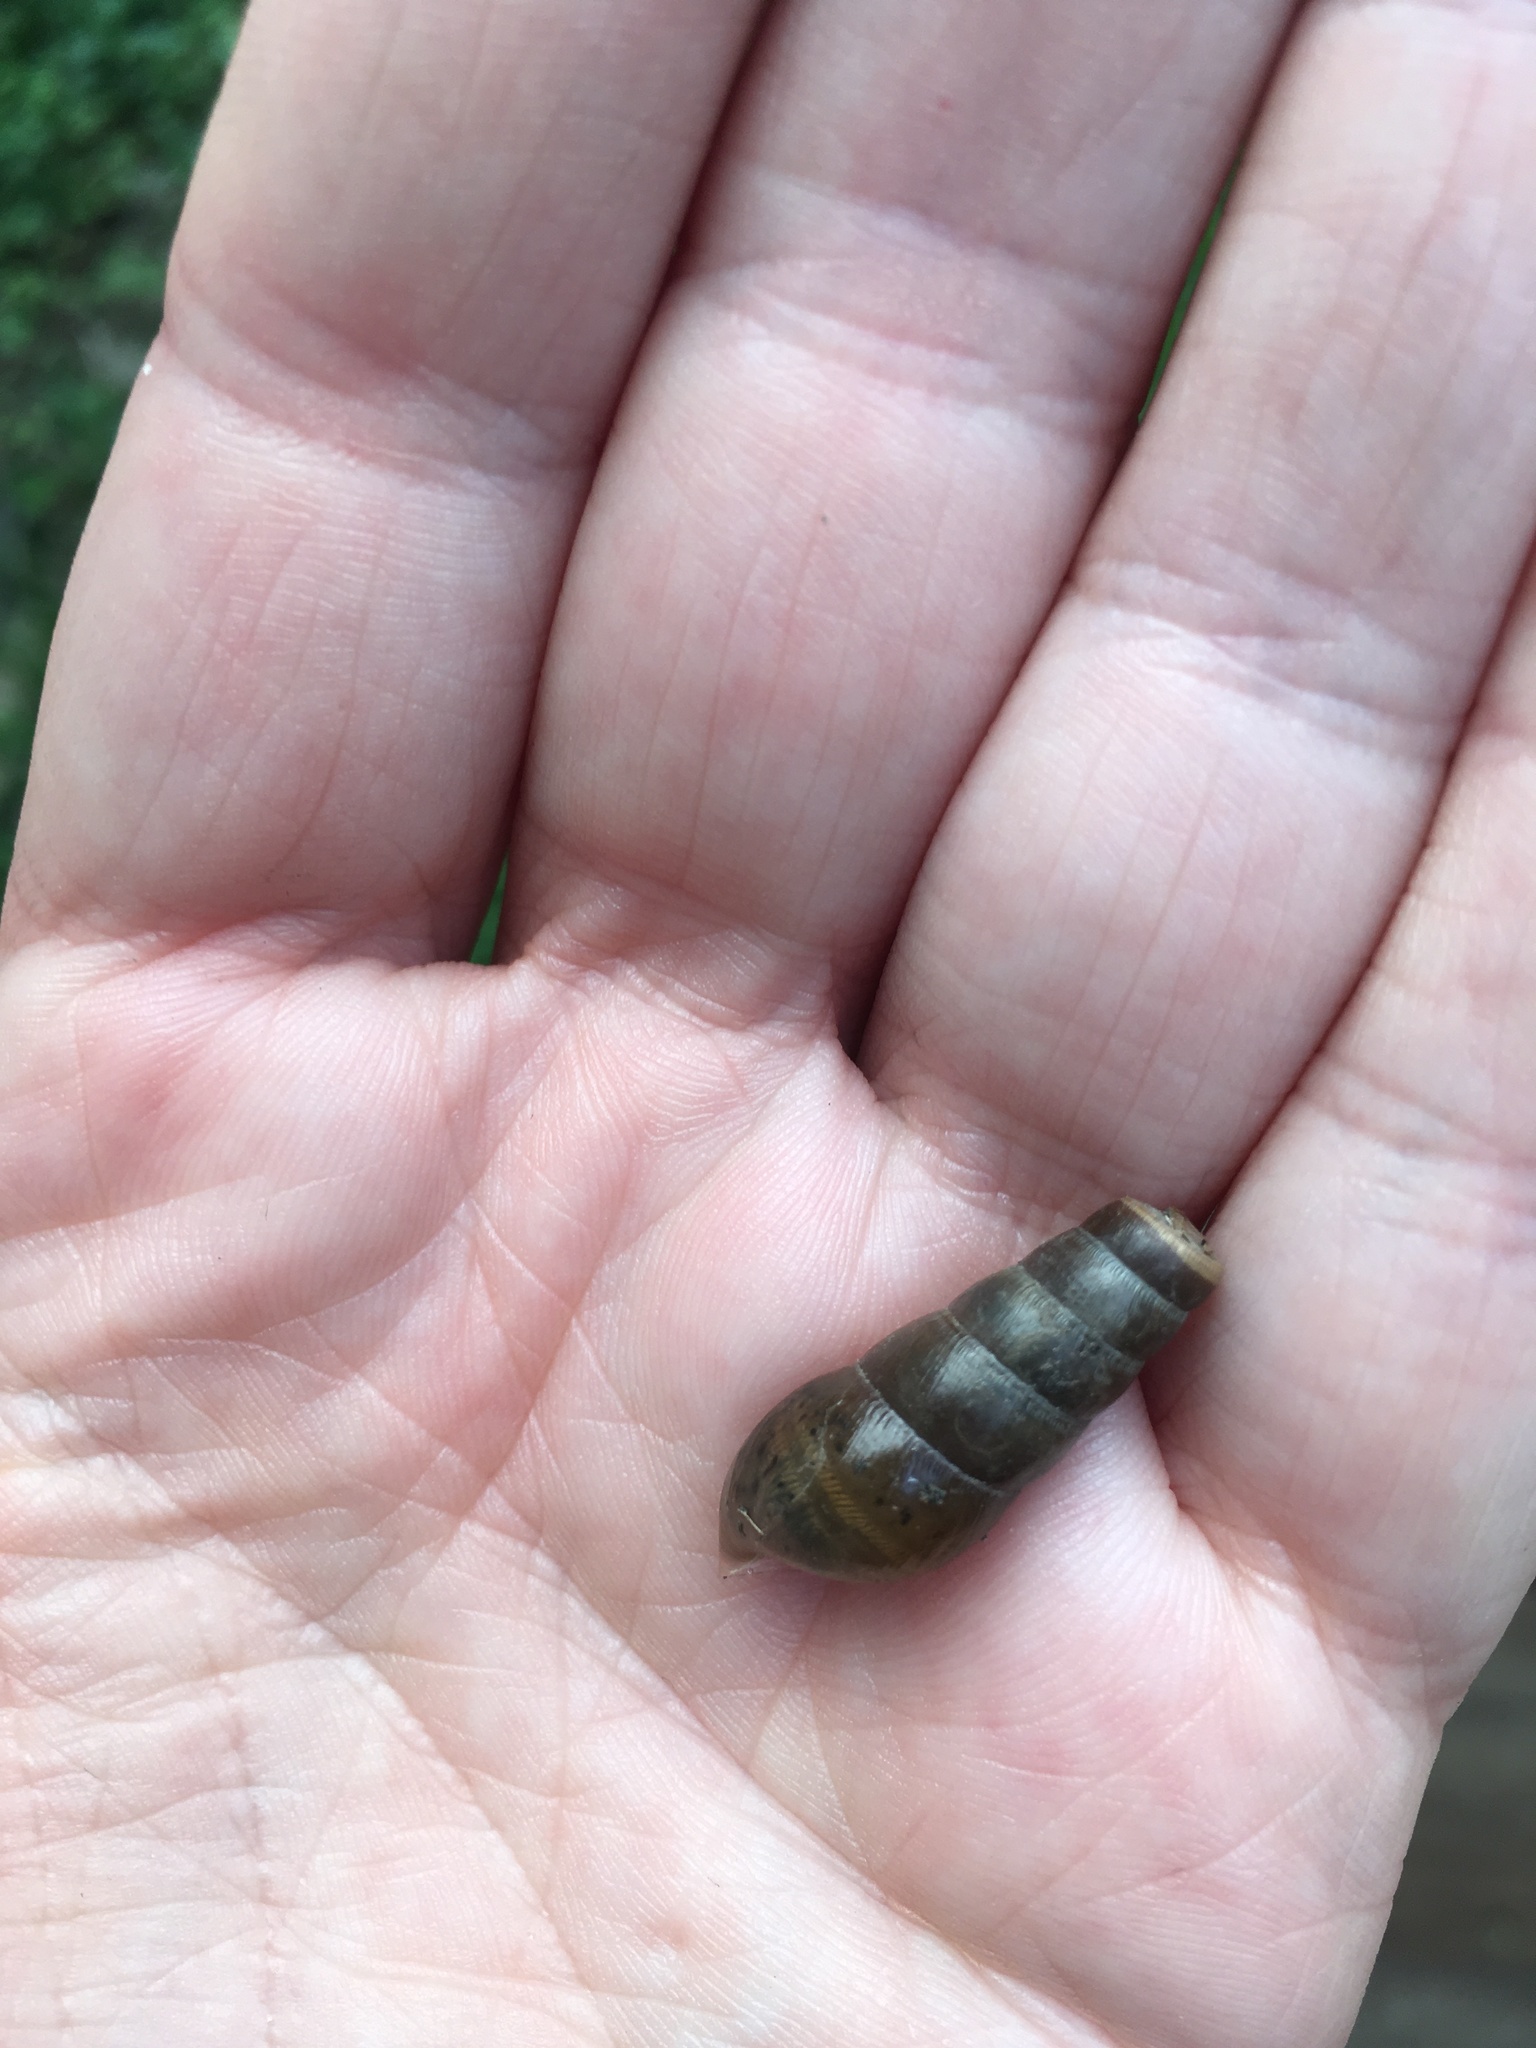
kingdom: Animalia
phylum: Mollusca
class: Gastropoda
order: Stylommatophora
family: Achatinidae
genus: Rumina
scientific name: Rumina decollata
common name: Decollate snail
